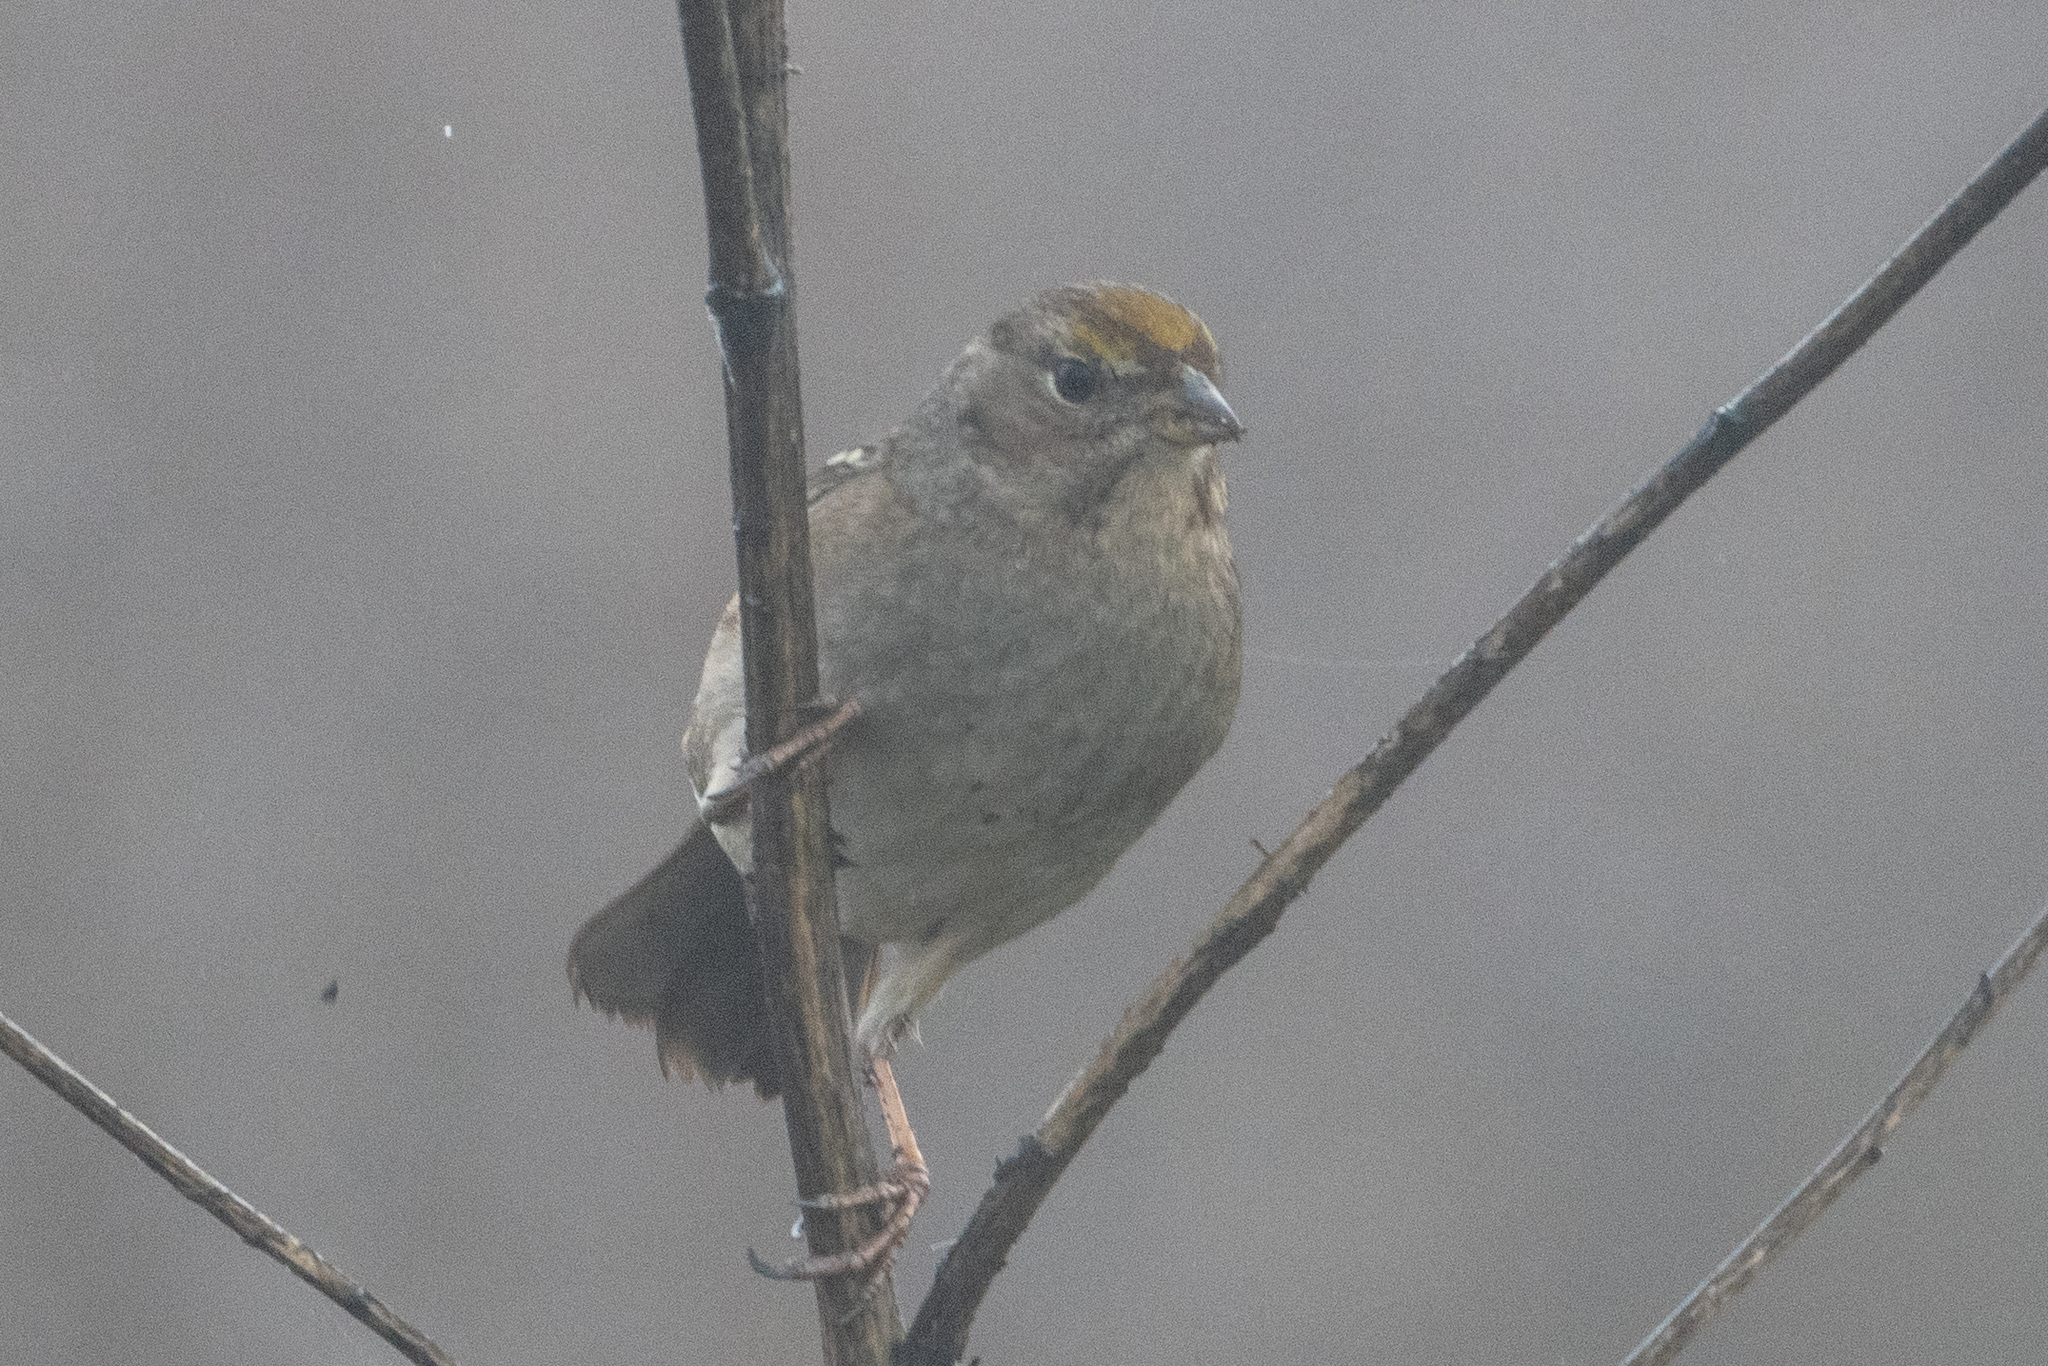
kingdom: Animalia
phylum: Chordata
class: Aves
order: Passeriformes
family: Passerellidae
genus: Zonotrichia
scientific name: Zonotrichia atricapilla
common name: Golden-crowned sparrow
